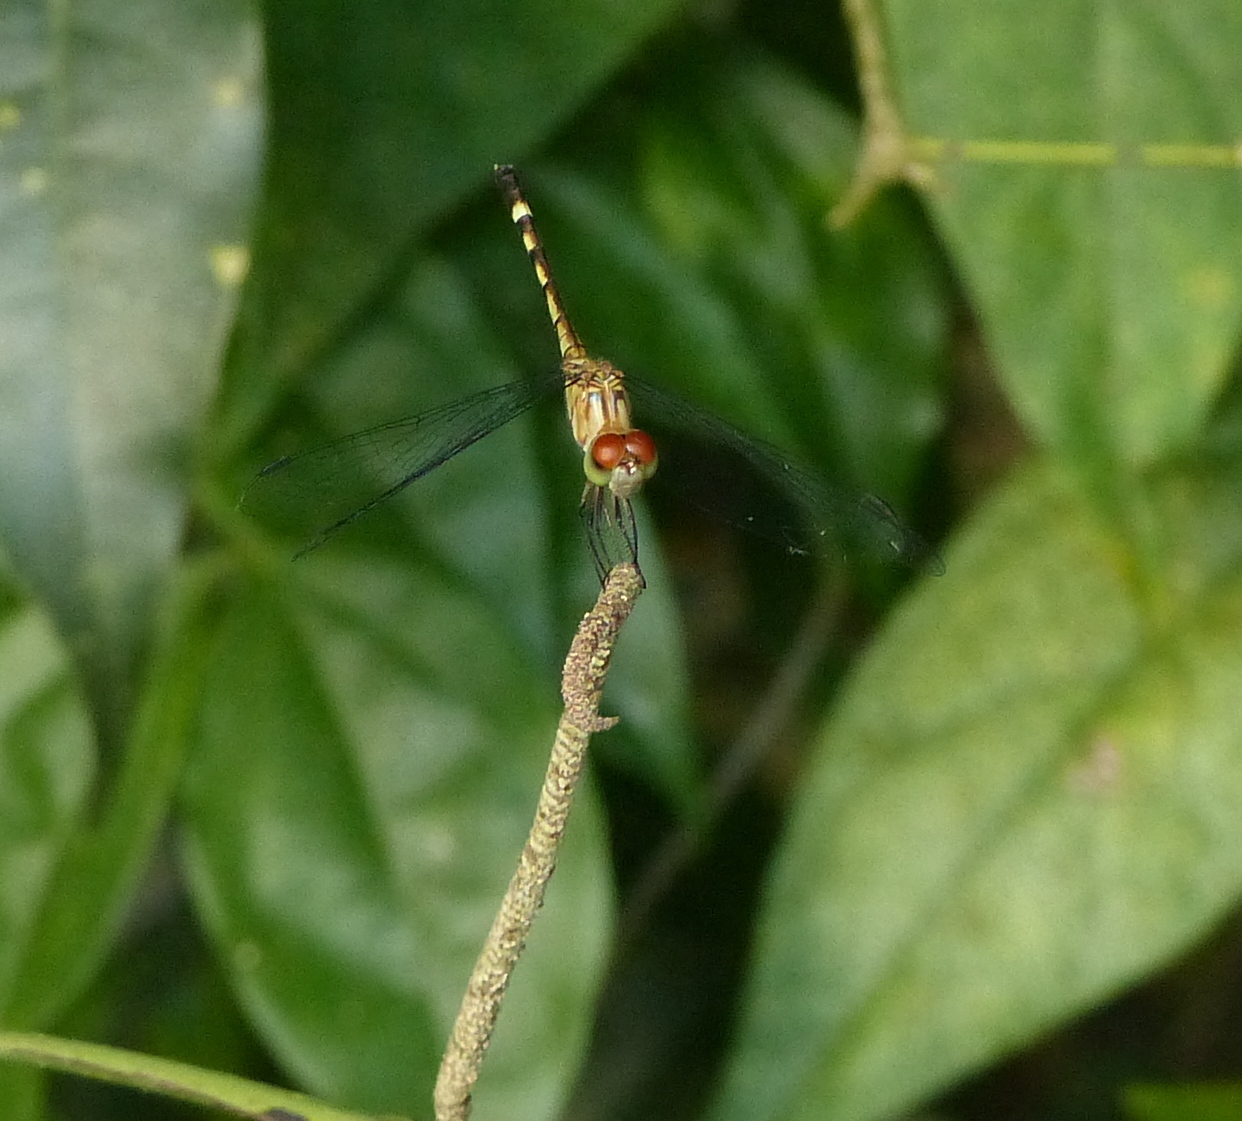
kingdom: Animalia
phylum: Arthropoda
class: Insecta
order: Odonata
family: Libellulidae
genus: Anatya
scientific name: Anatya januaria
